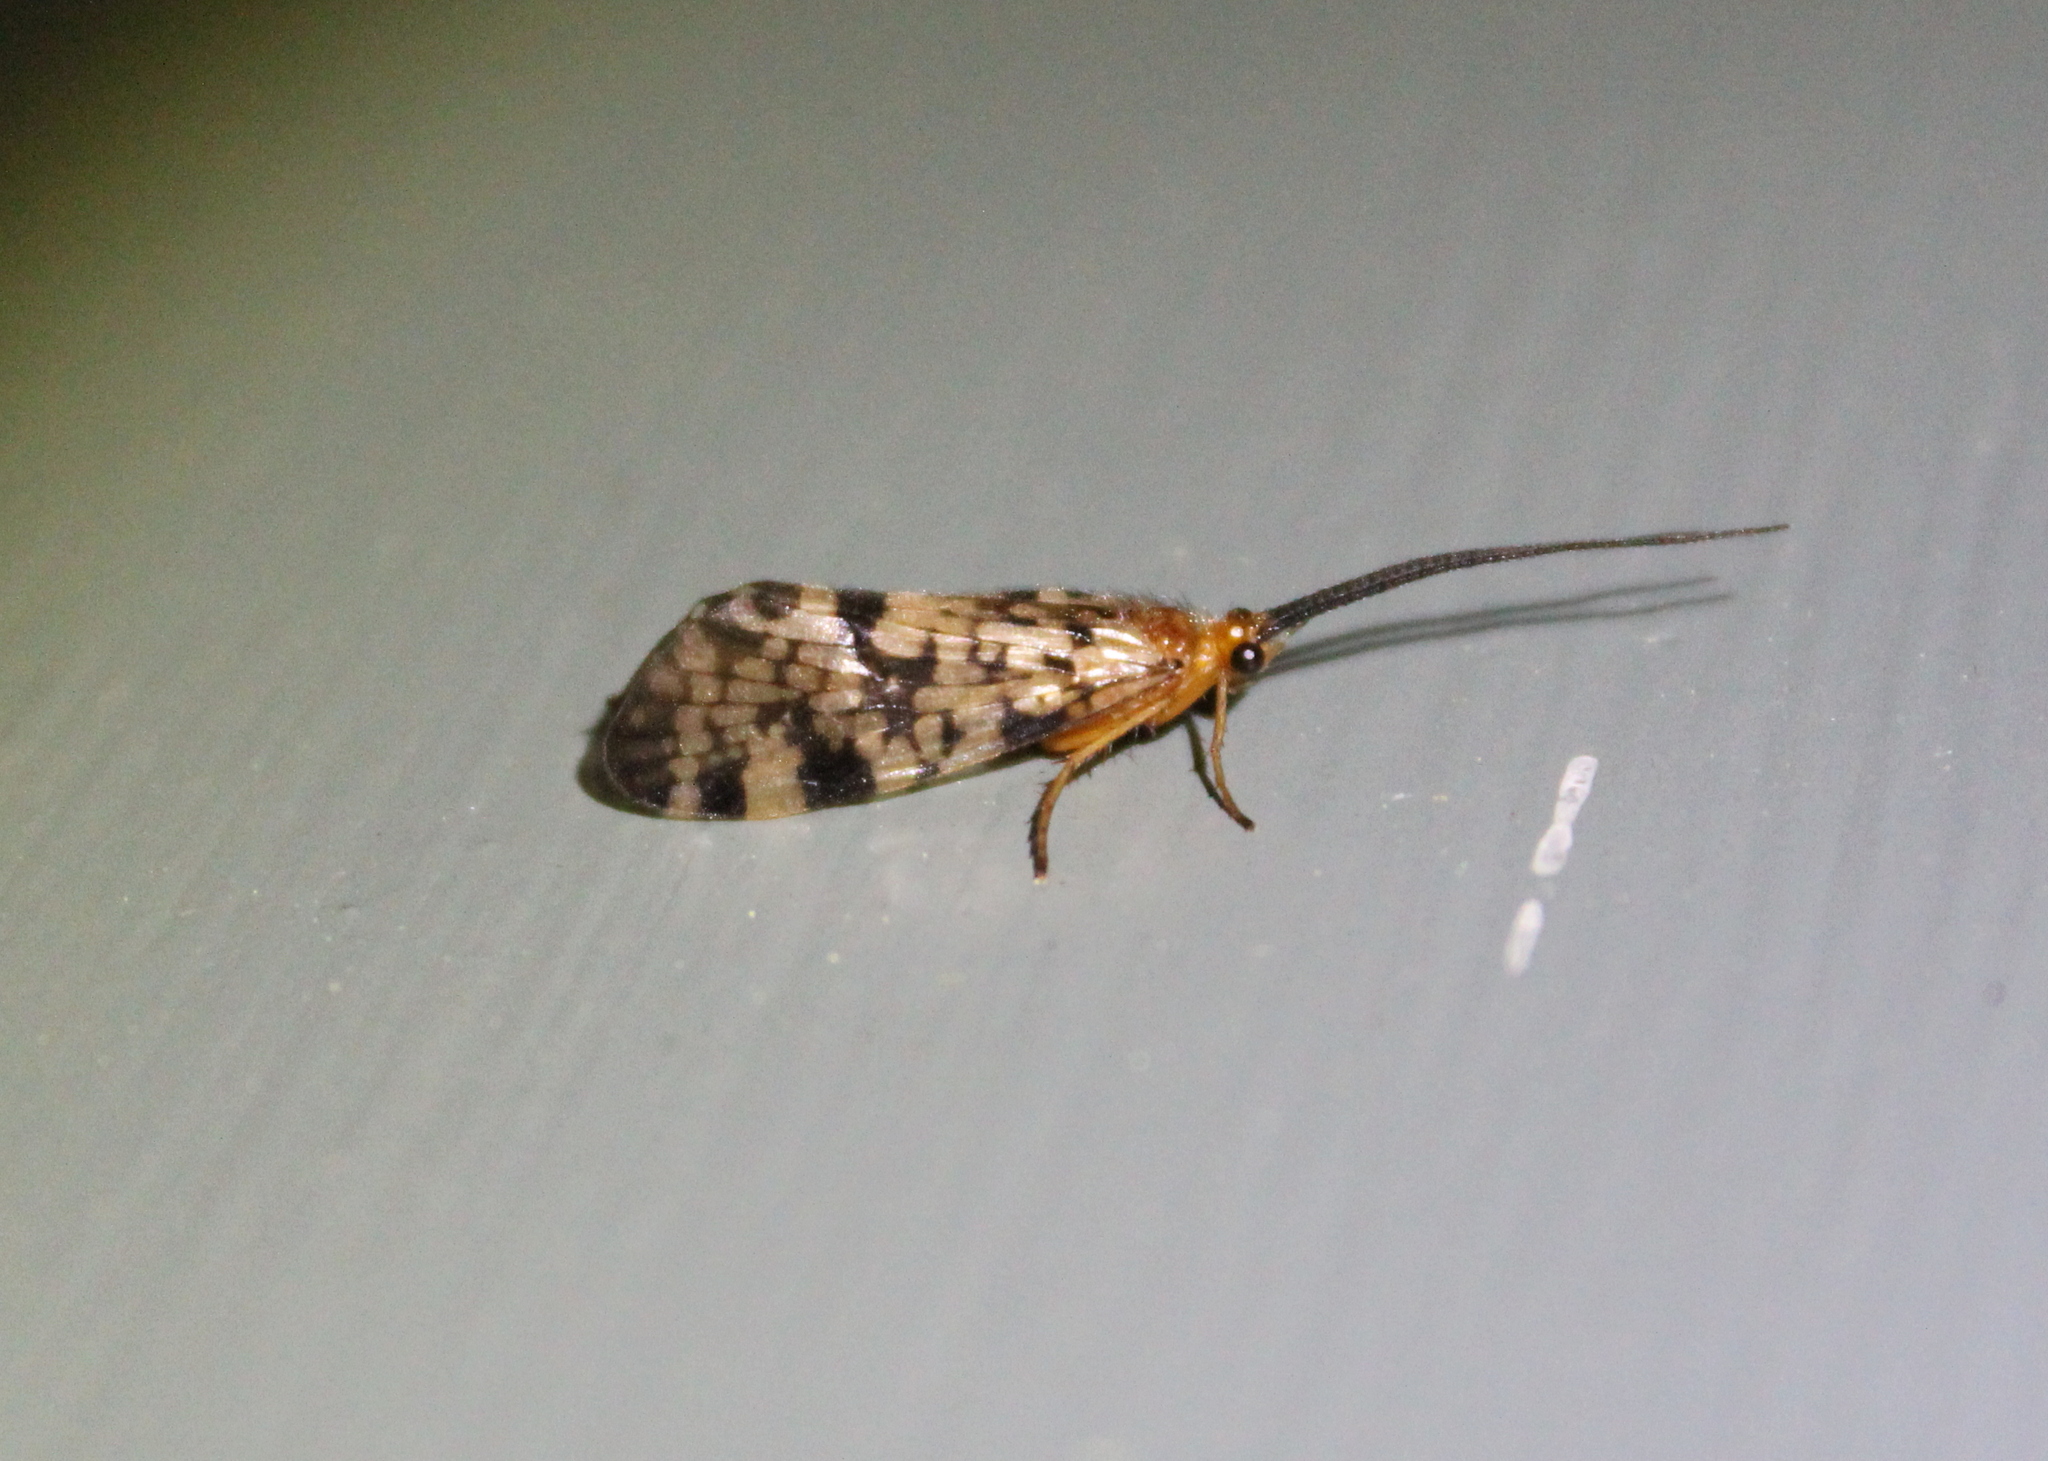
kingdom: Animalia
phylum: Arthropoda
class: Insecta
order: Trichoptera
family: Phryganeidae
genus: Banksiola
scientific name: Banksiola dossuaria
